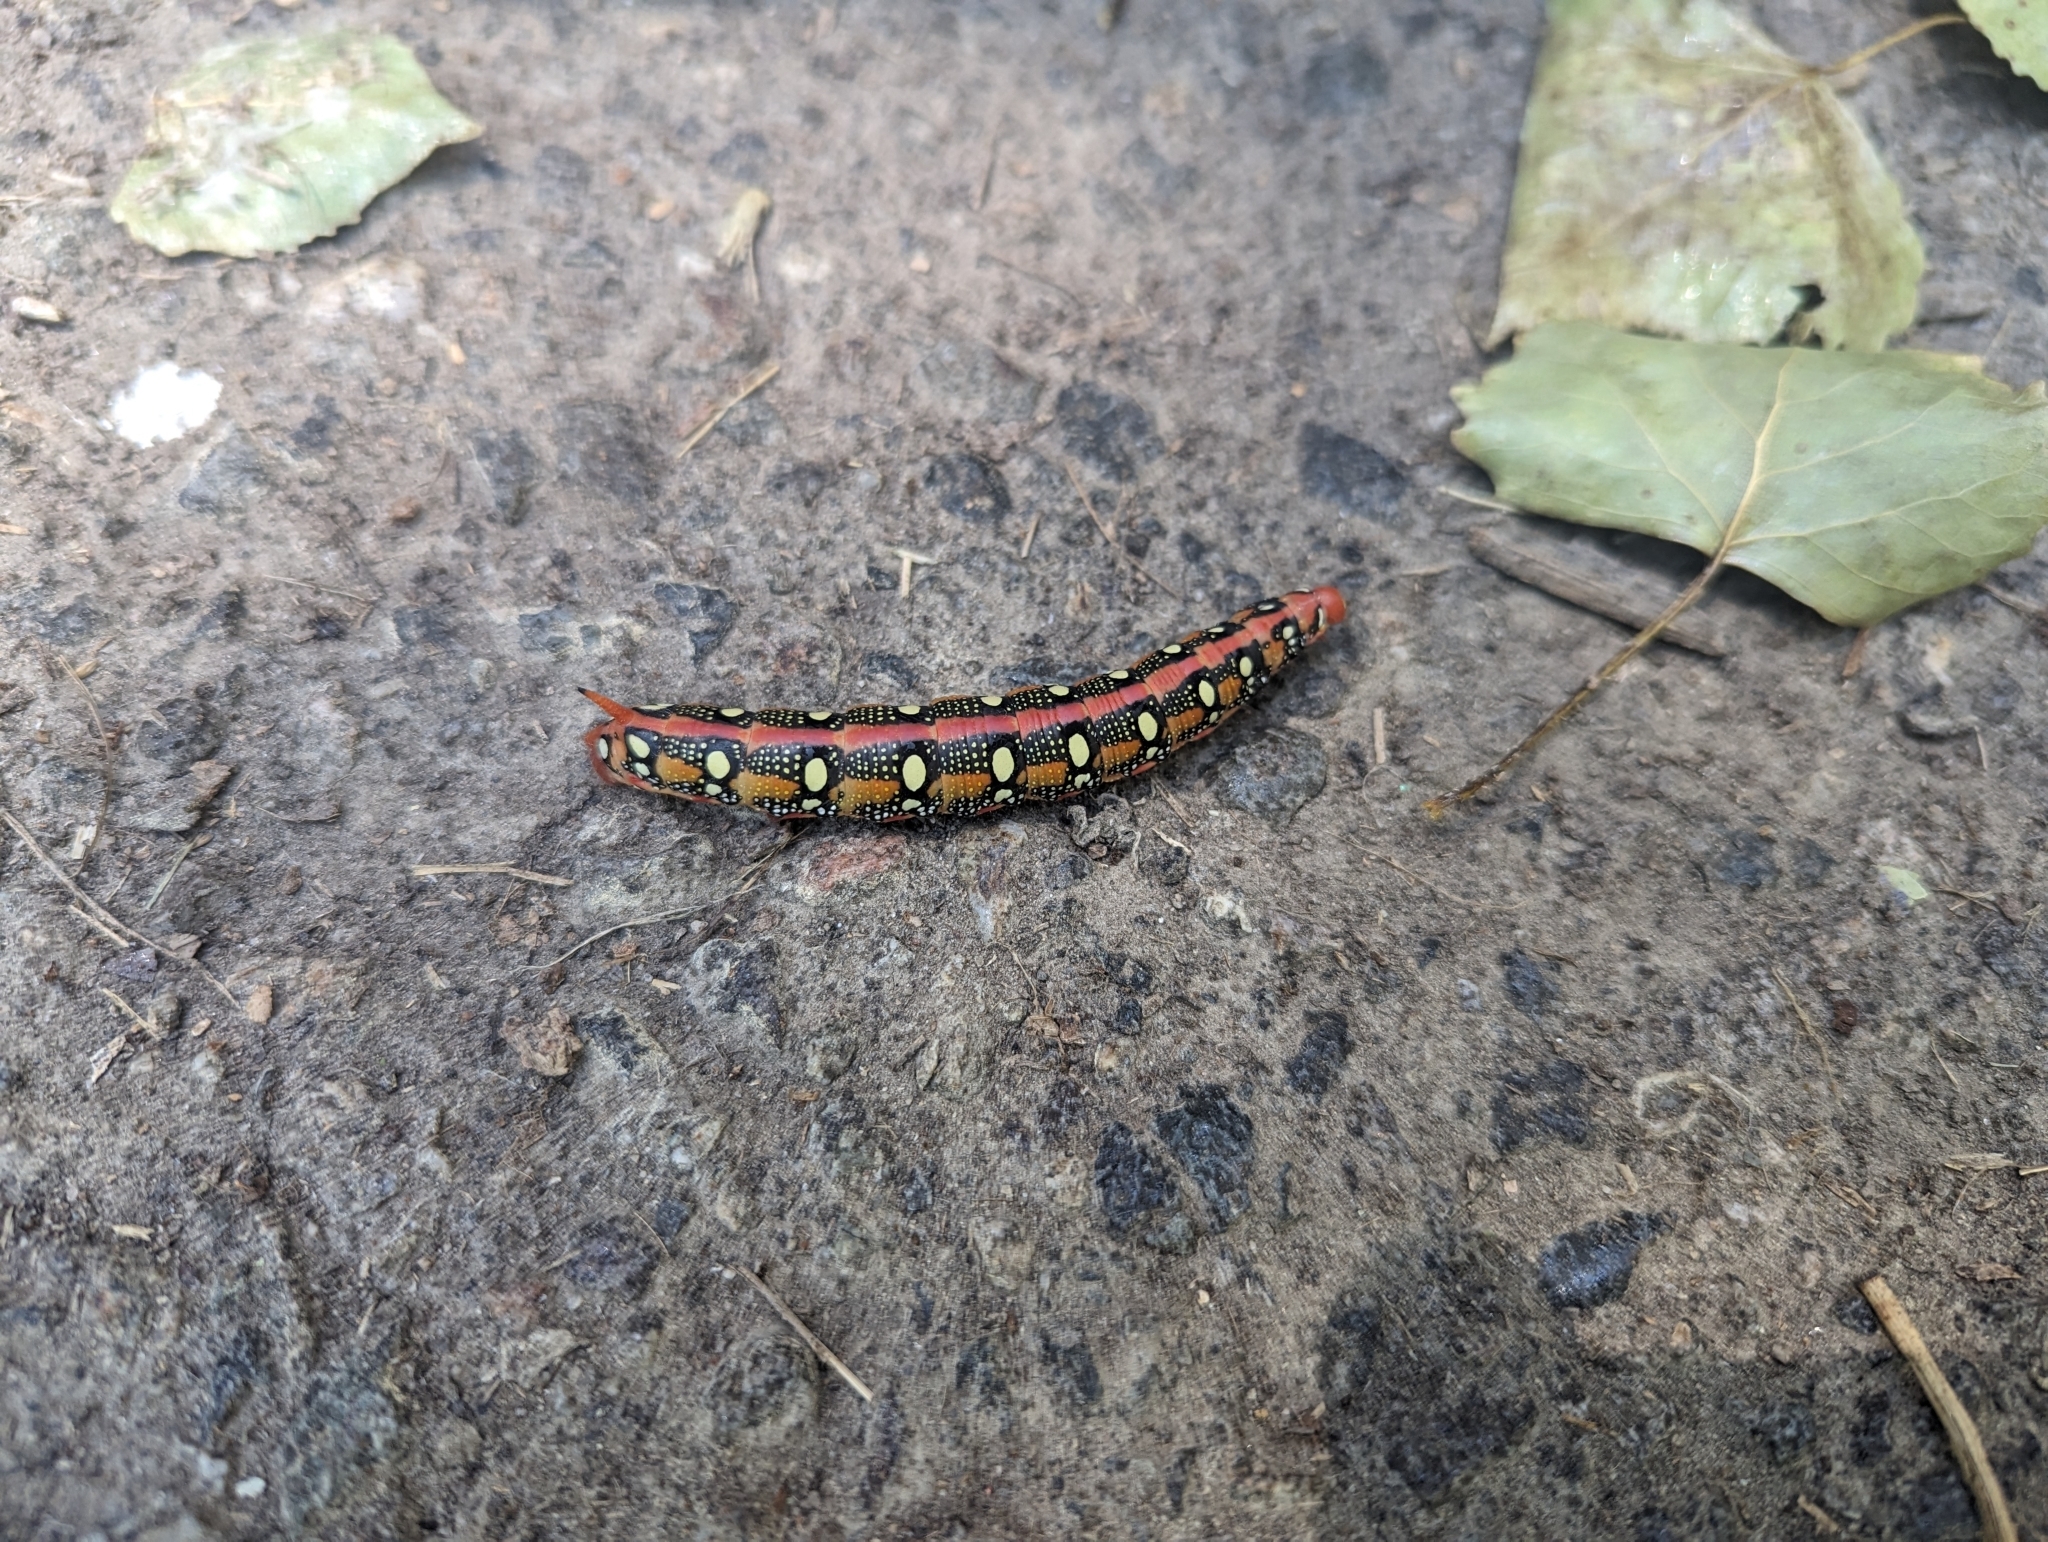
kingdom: Animalia
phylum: Arthropoda
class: Insecta
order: Lepidoptera
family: Sphingidae
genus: Hyles
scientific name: Hyles euphorbiae
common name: Spurge hawk-moth
